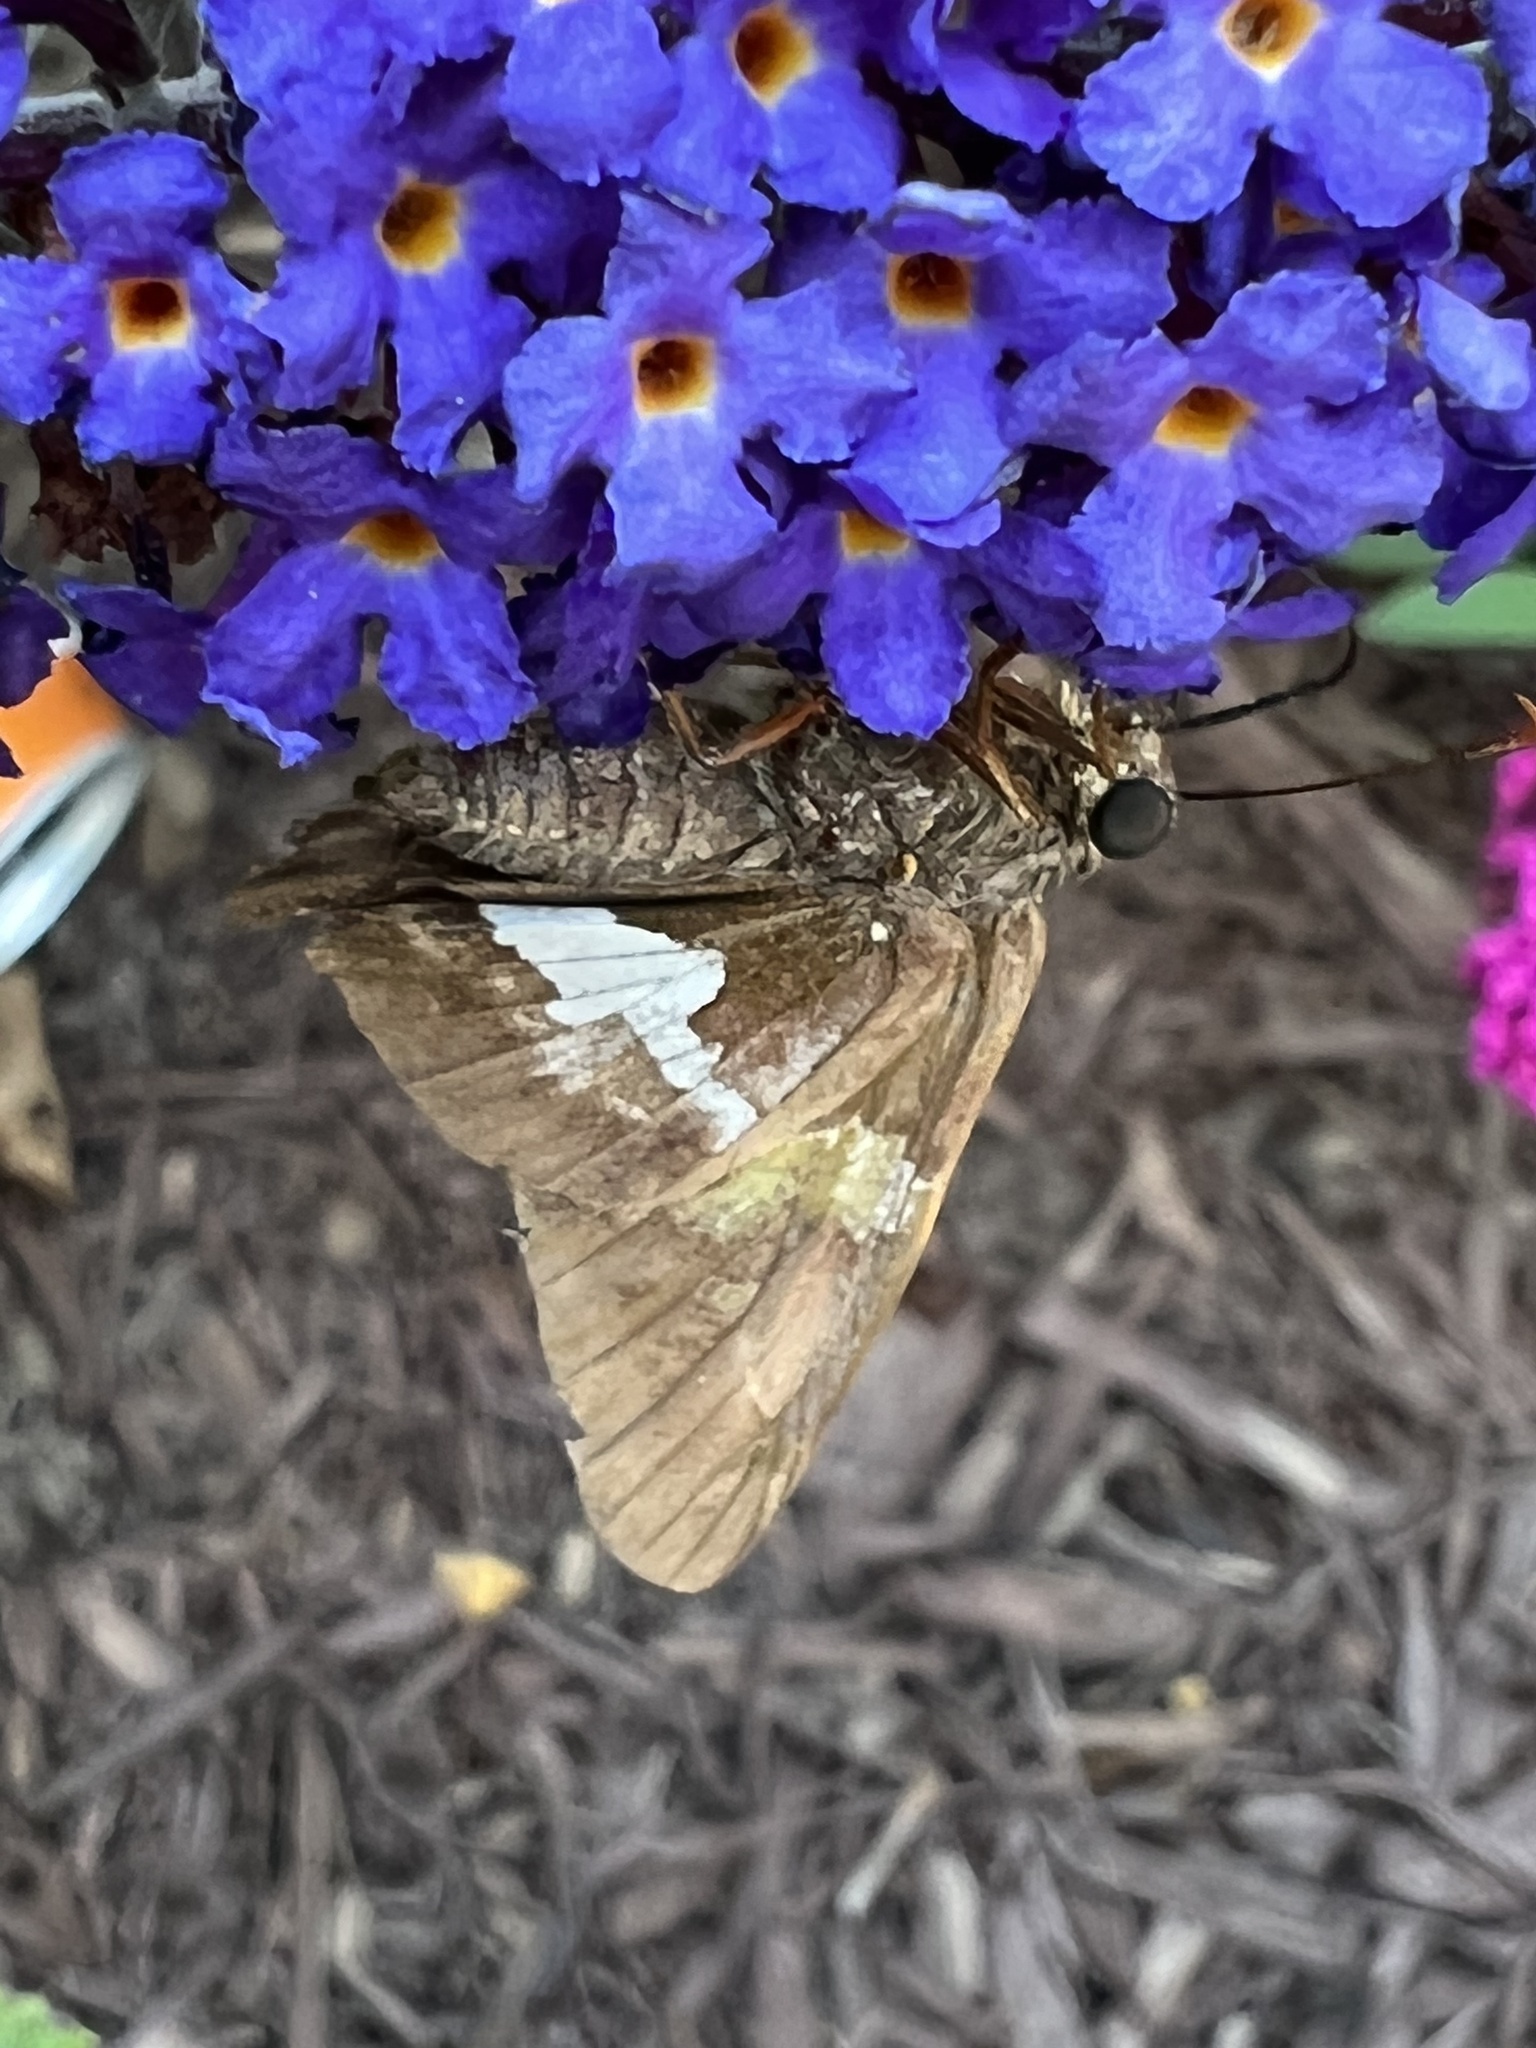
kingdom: Animalia
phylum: Arthropoda
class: Insecta
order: Lepidoptera
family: Hesperiidae
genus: Epargyreus
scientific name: Epargyreus clarus
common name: Silver-spotted skipper
